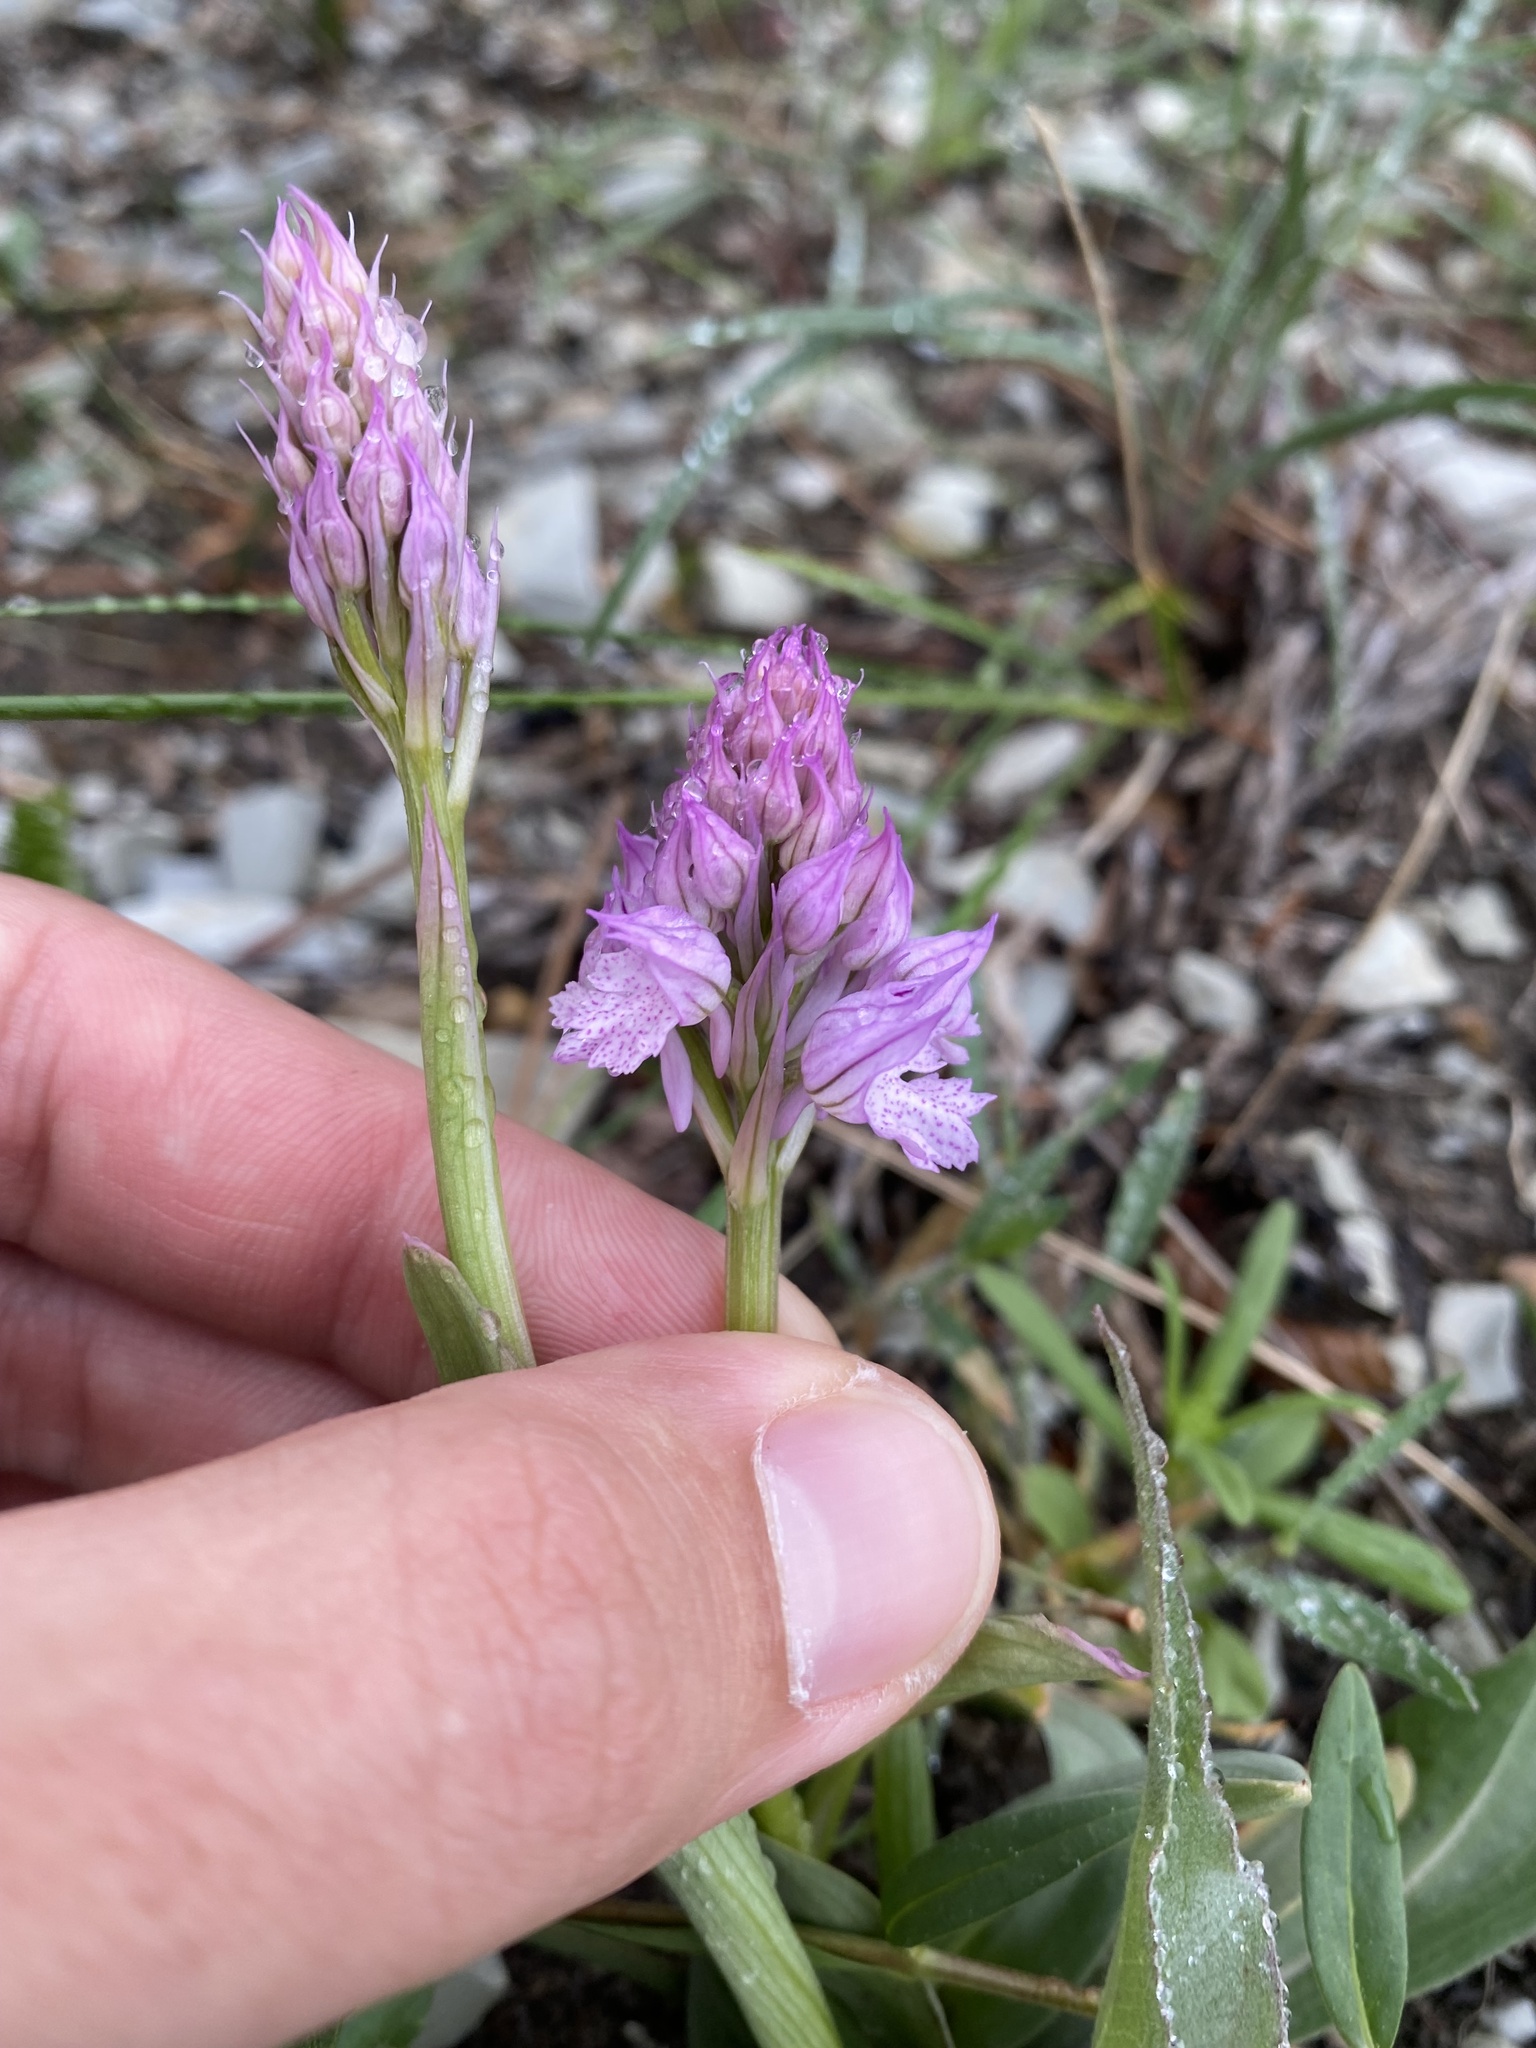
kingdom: Plantae
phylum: Tracheophyta
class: Liliopsida
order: Asparagales
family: Orchidaceae
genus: Neotinea
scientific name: Neotinea tridentata
